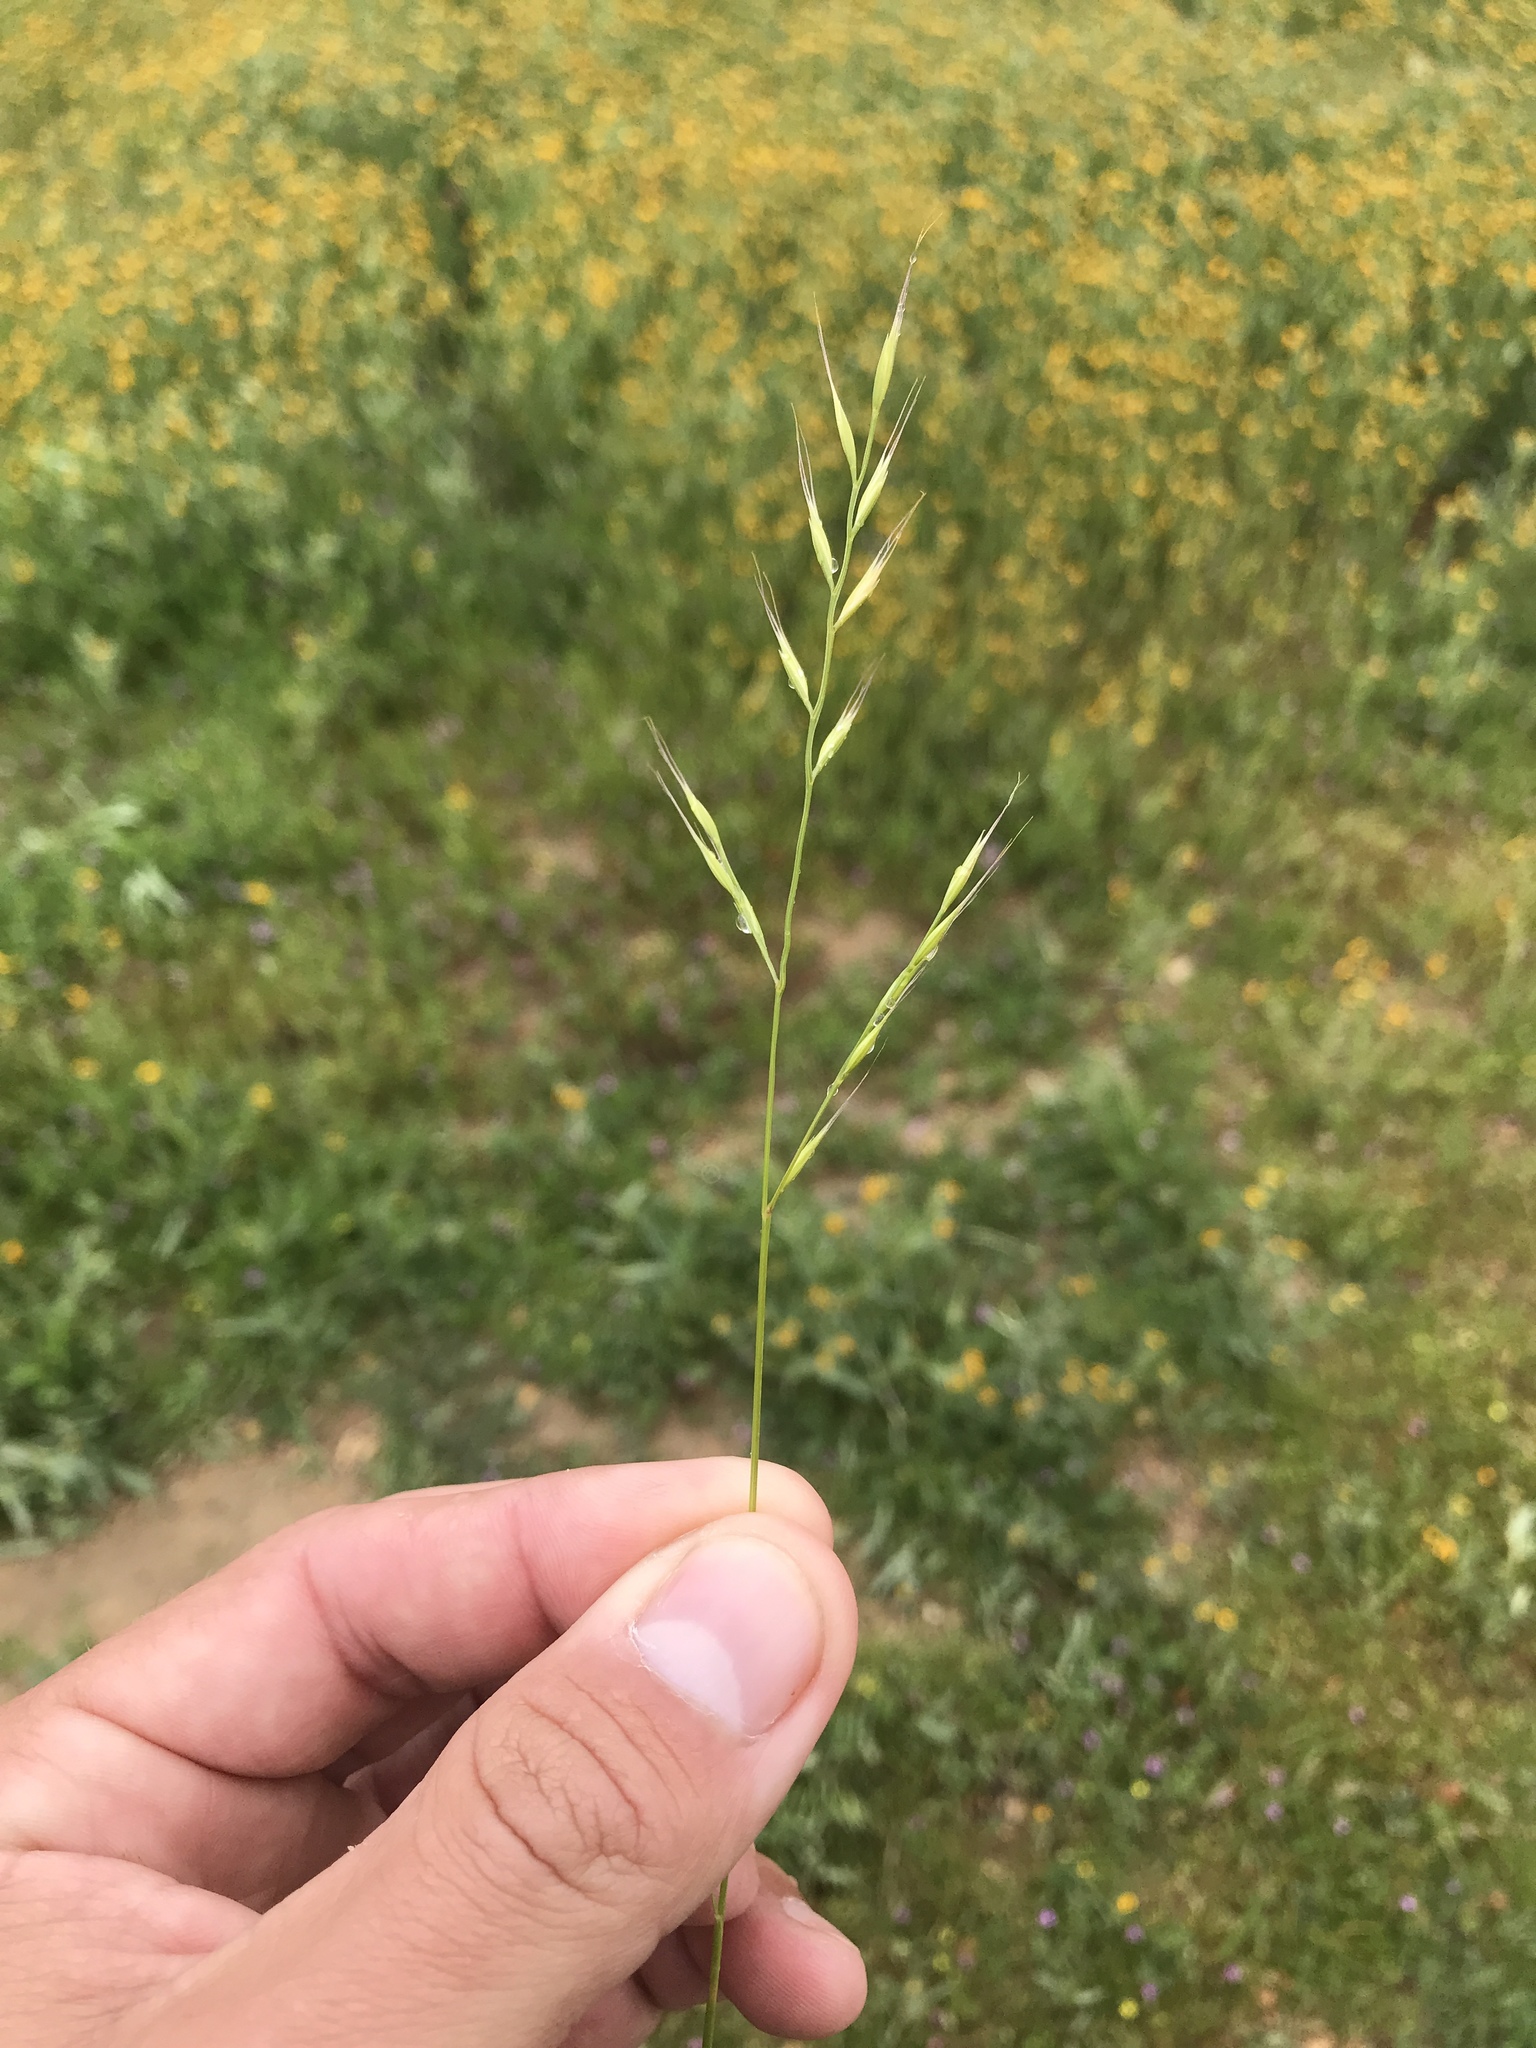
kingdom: Plantae
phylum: Tracheophyta
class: Liliopsida
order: Poales
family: Poaceae
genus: Festuca
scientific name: Festuca microstachys
